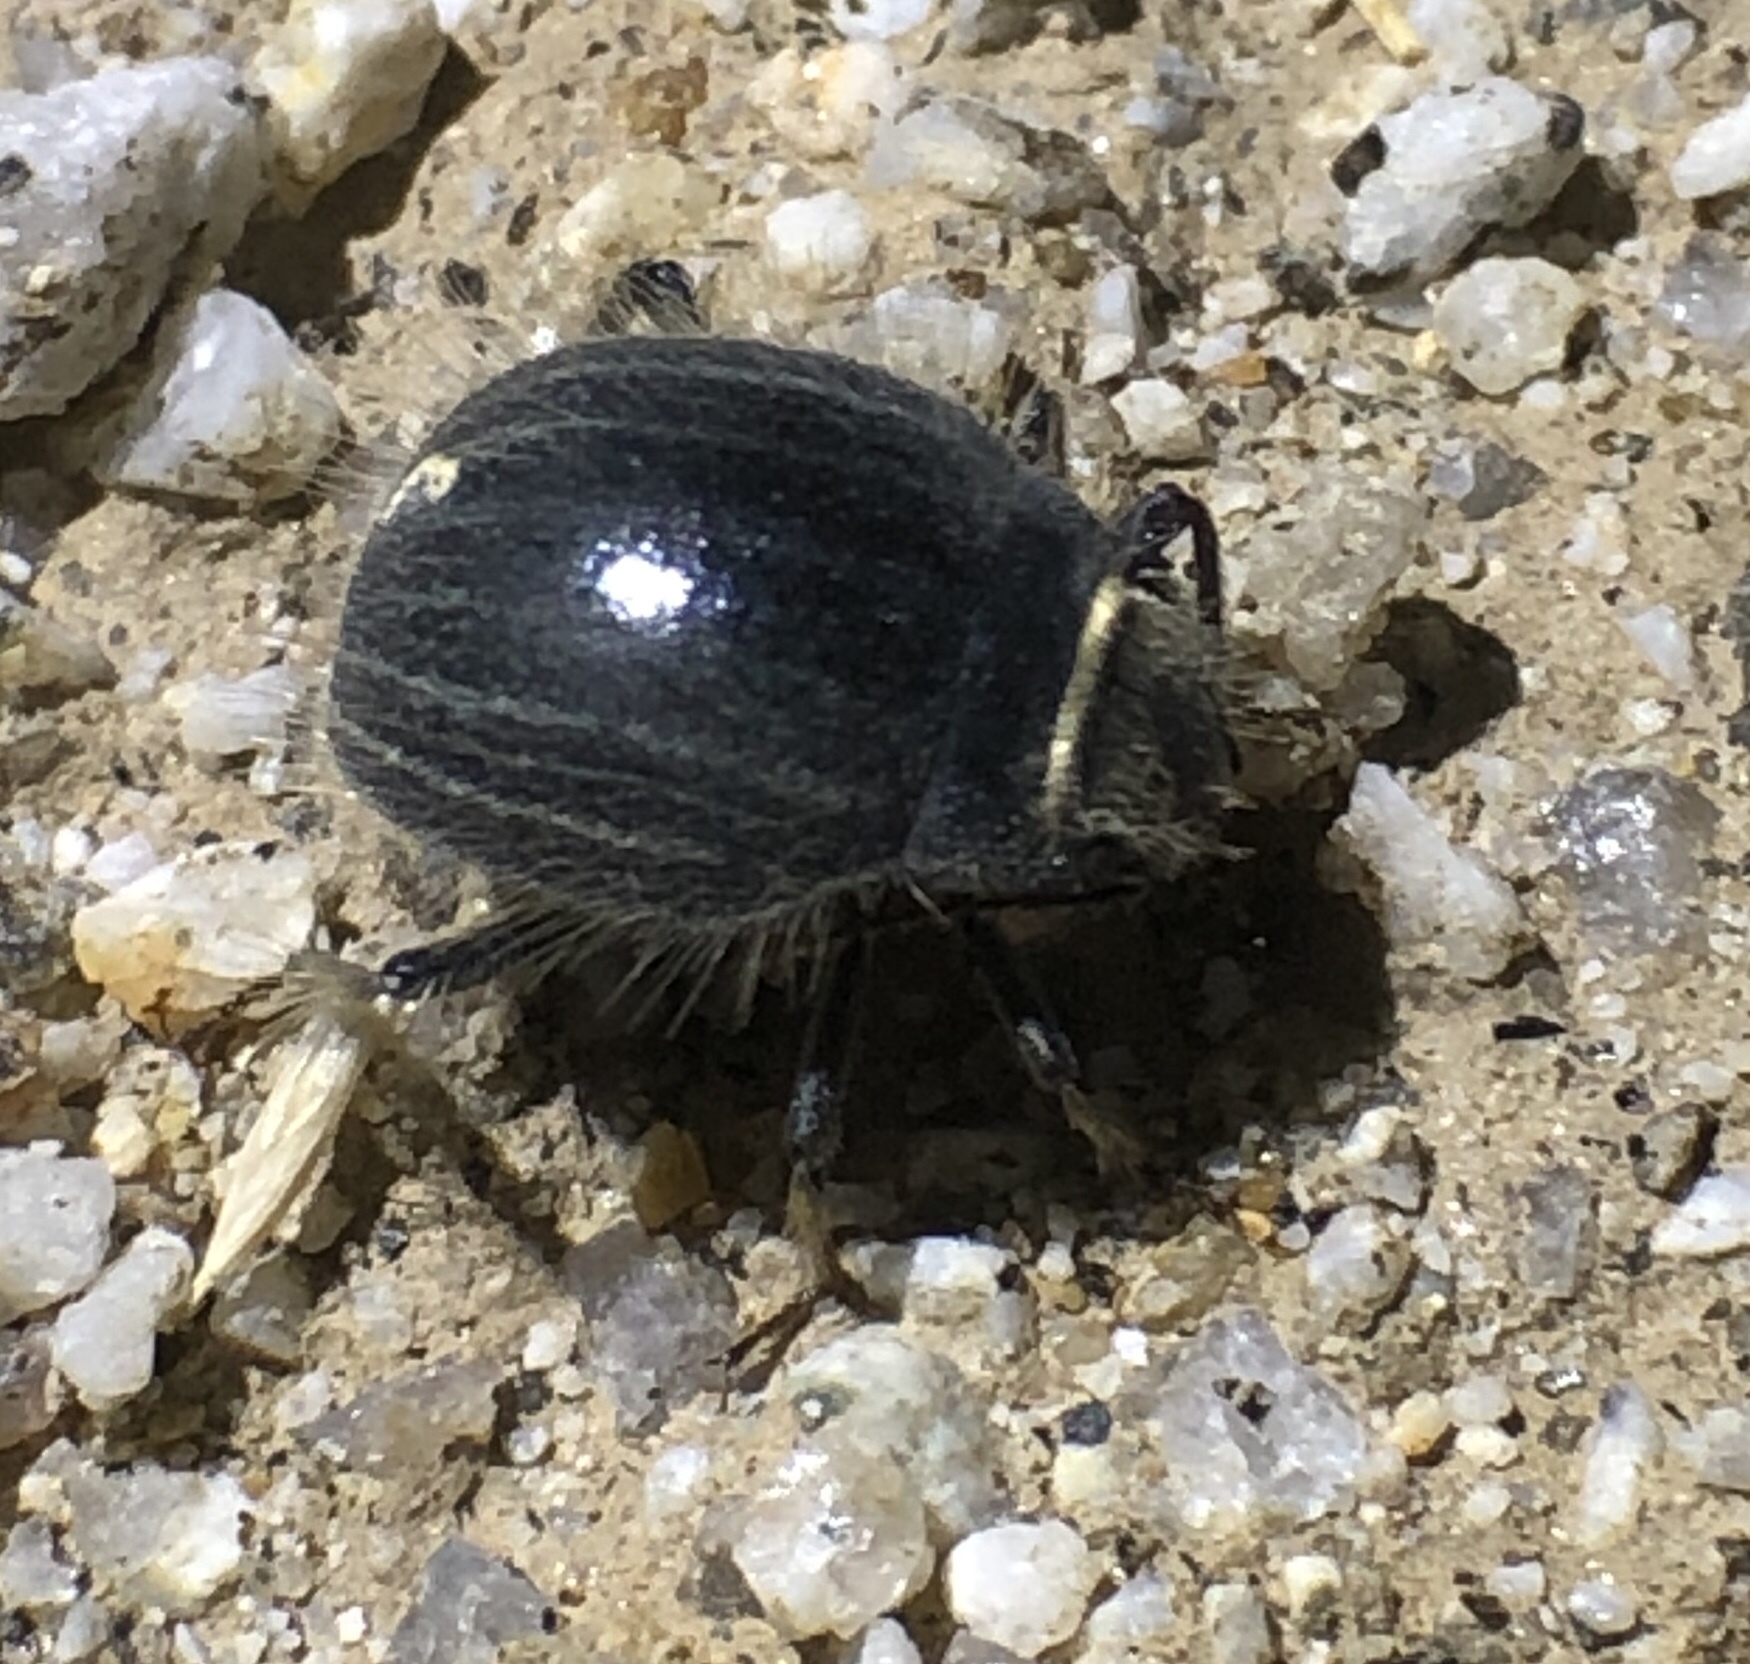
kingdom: Animalia
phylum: Arthropoda
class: Insecta
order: Coleoptera
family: Tenebrionidae
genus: Edrotes
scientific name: Edrotes ventricosus
